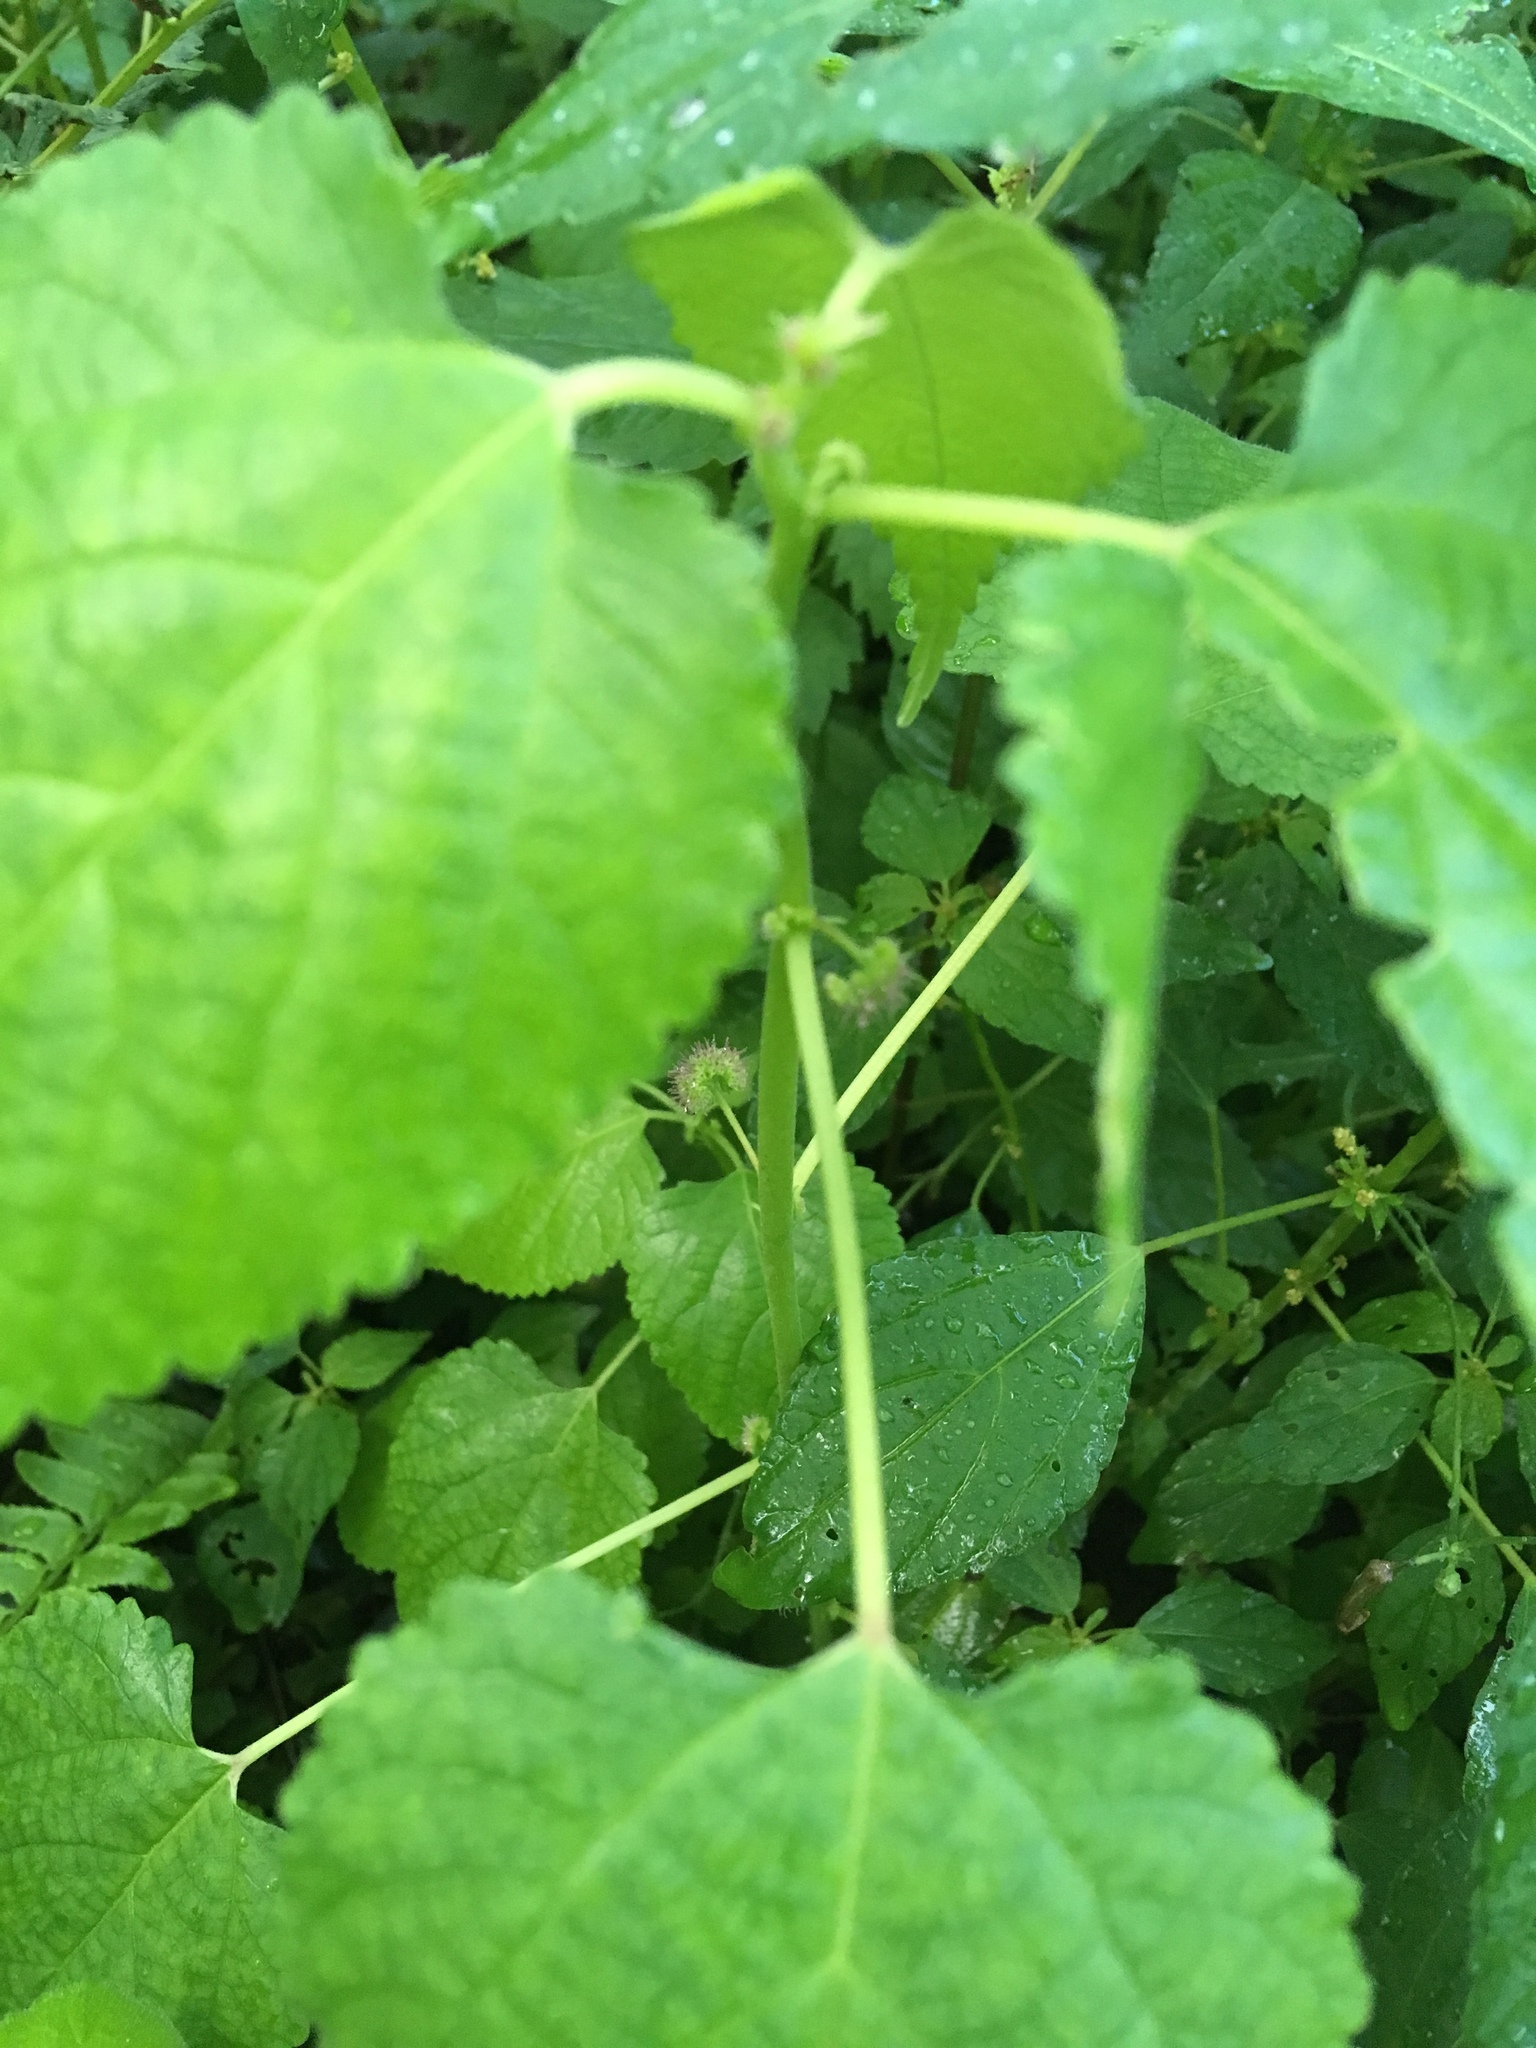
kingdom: Plantae
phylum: Tracheophyta
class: Magnoliopsida
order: Rosales
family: Moraceae
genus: Fatoua
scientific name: Fatoua villosa
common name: Hairy crabweed
